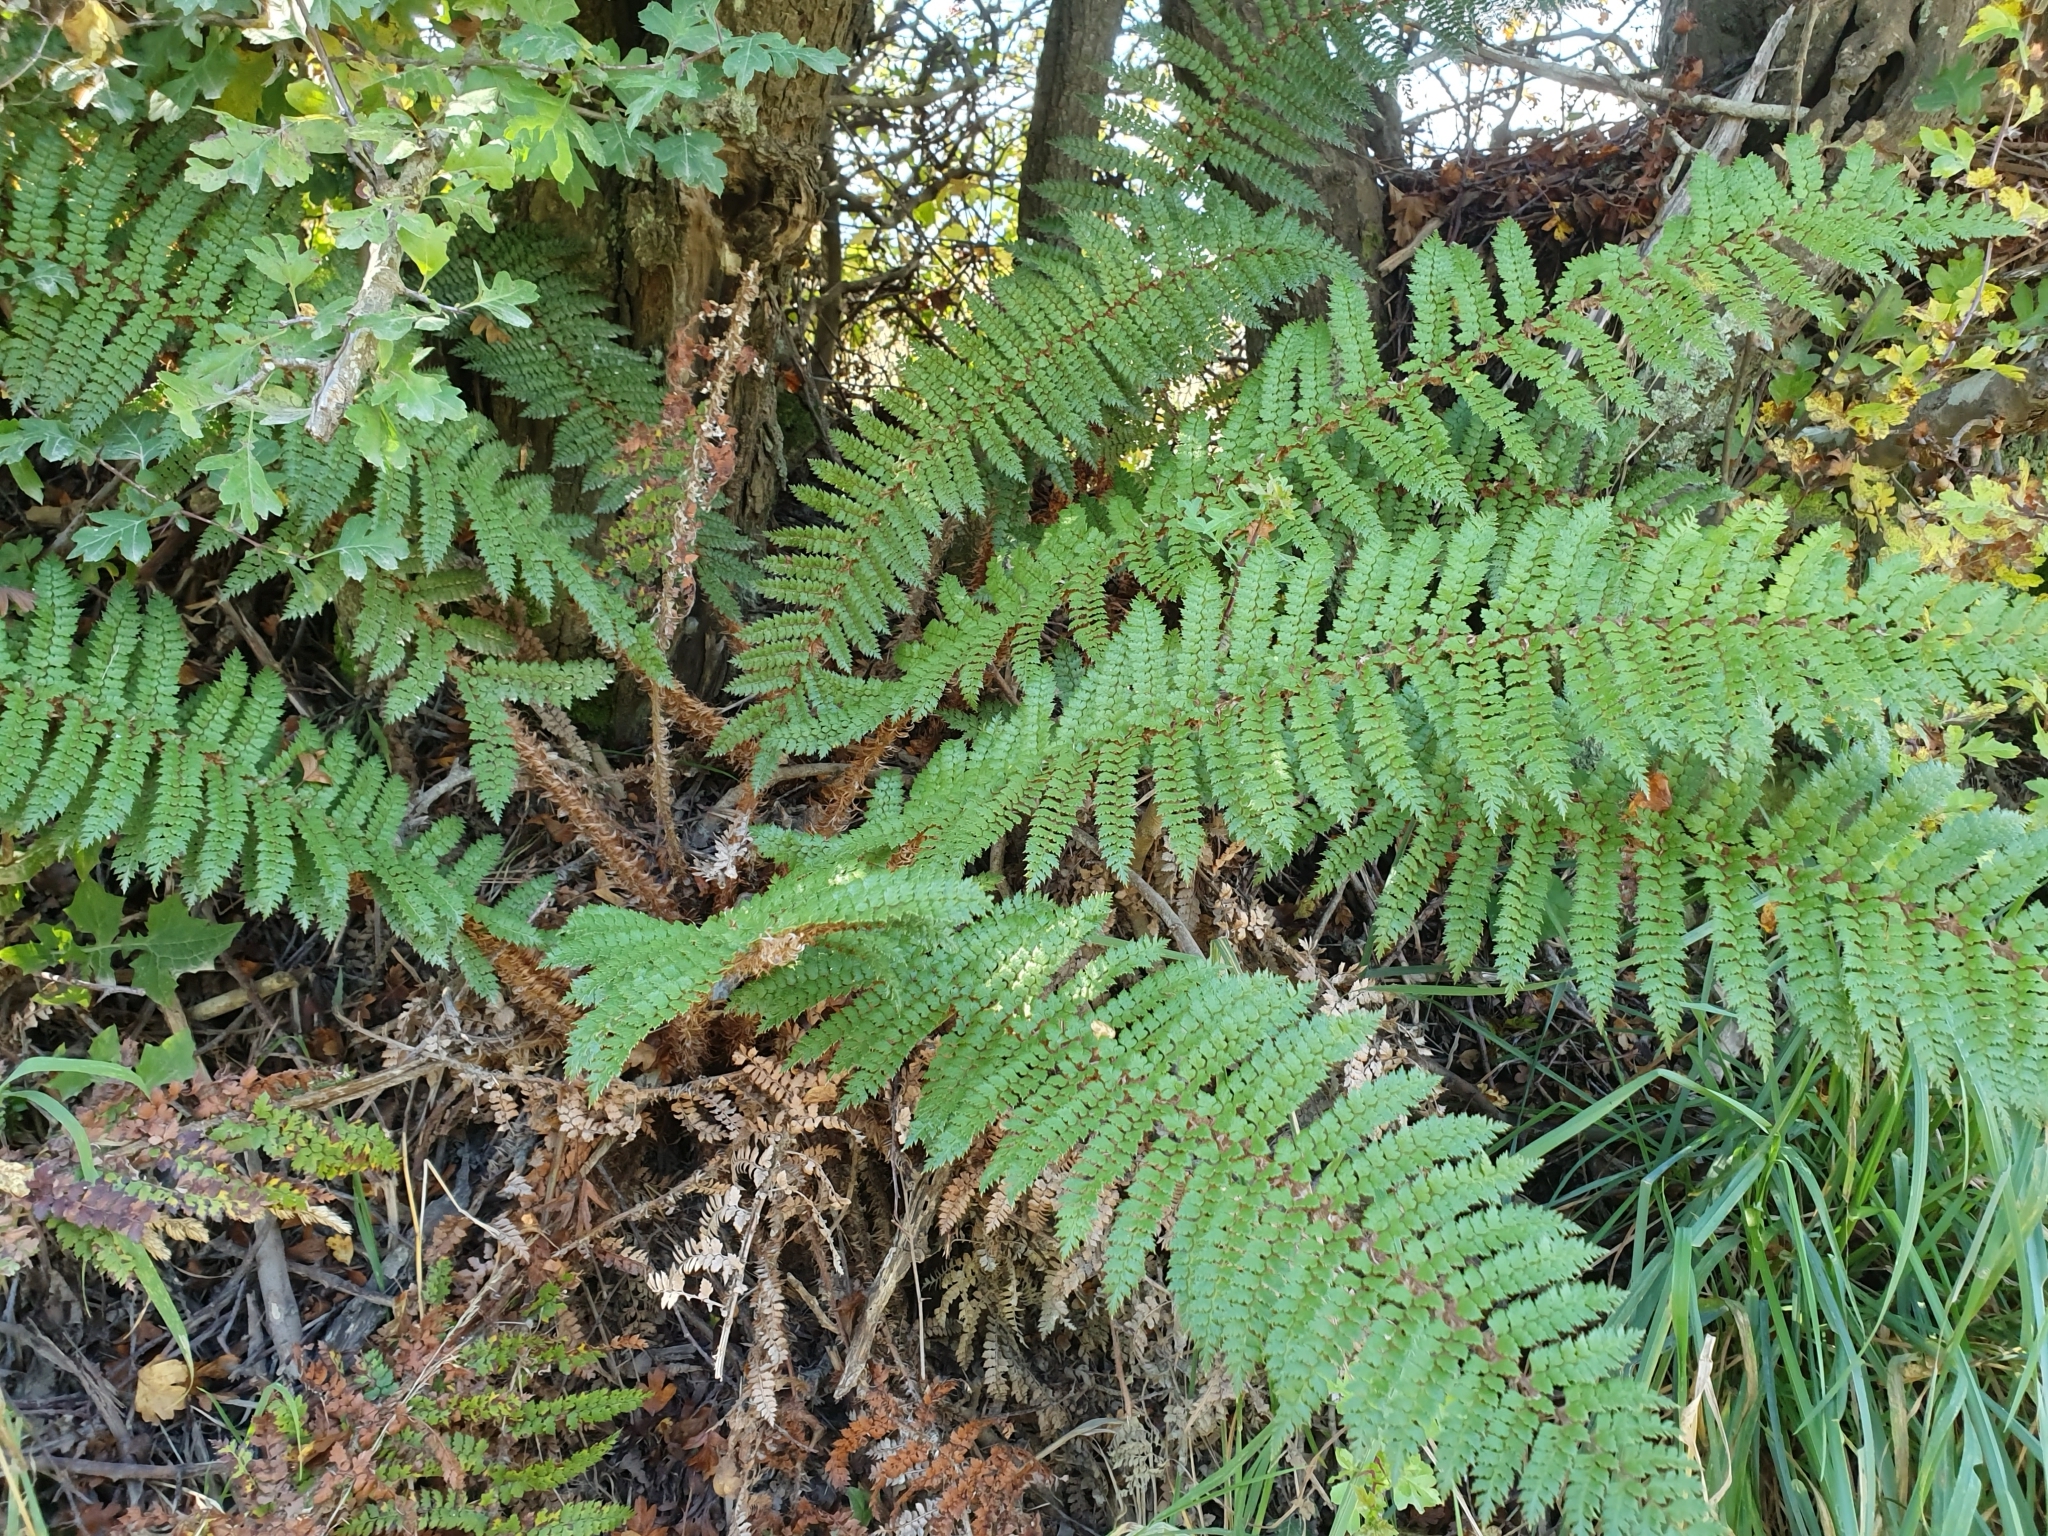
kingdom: Plantae
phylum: Tracheophyta
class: Polypodiopsida
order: Polypodiales
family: Dryopteridaceae
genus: Polystichum
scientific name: Polystichum vestitum
